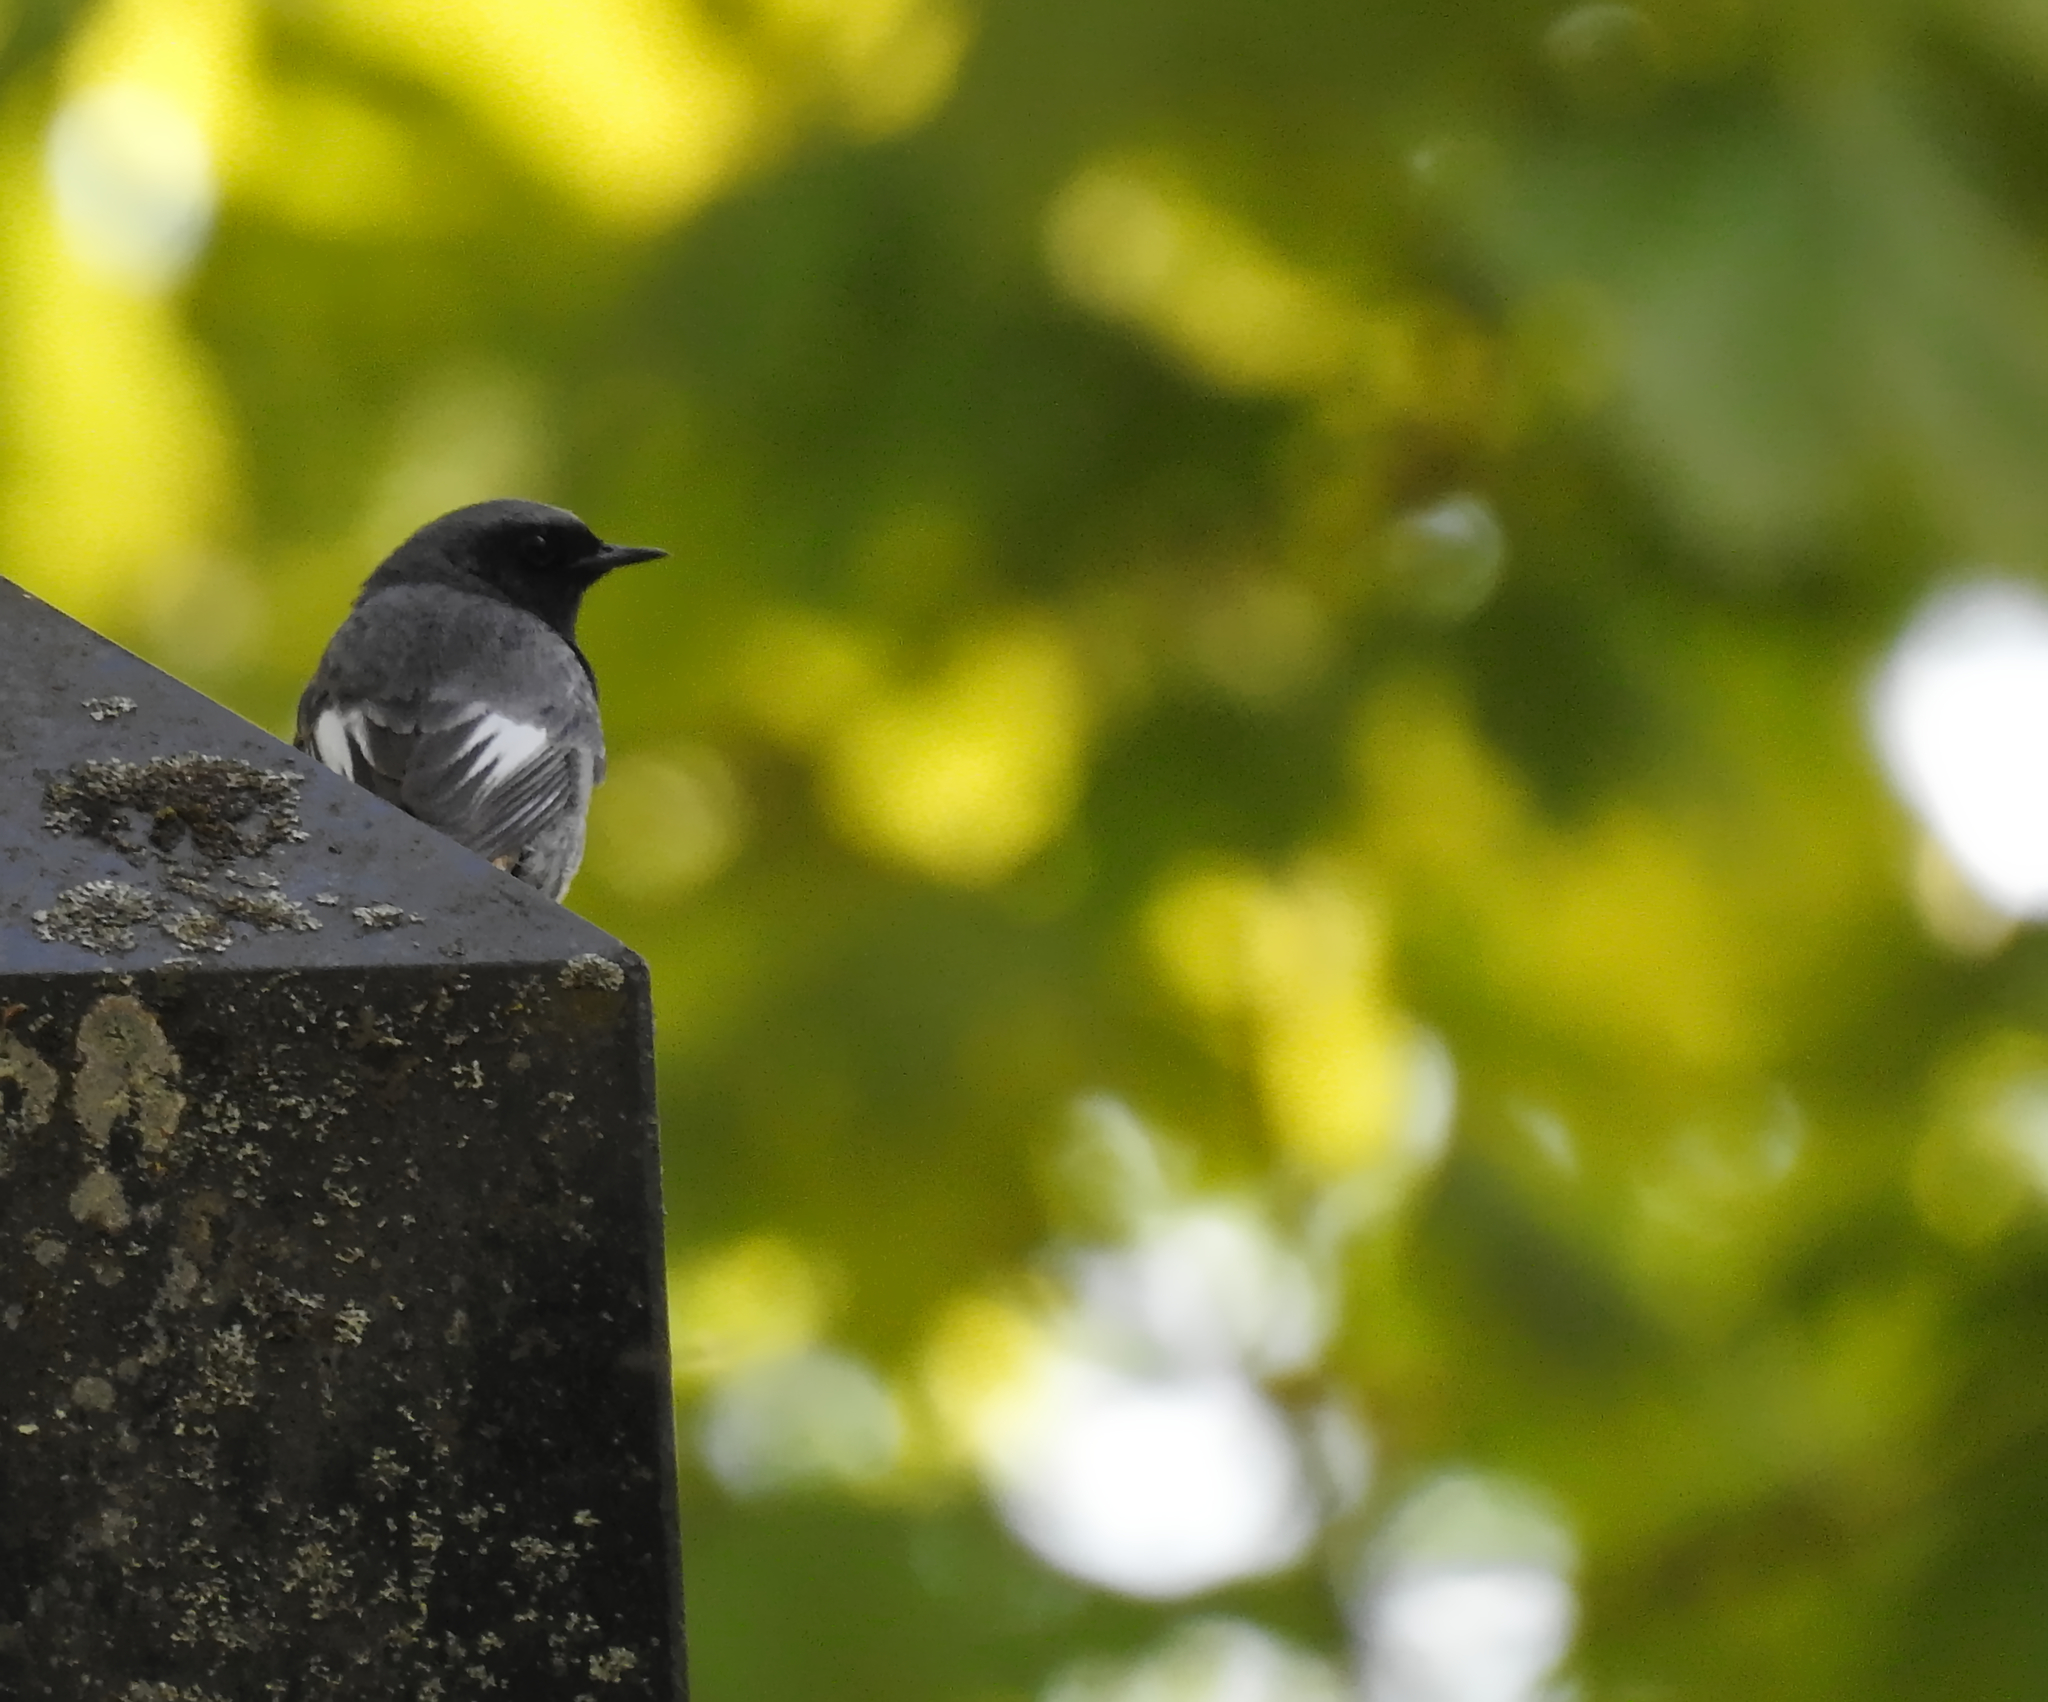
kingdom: Animalia
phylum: Chordata
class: Aves
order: Passeriformes
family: Muscicapidae
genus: Phoenicurus
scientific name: Phoenicurus ochruros
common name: Black redstart
